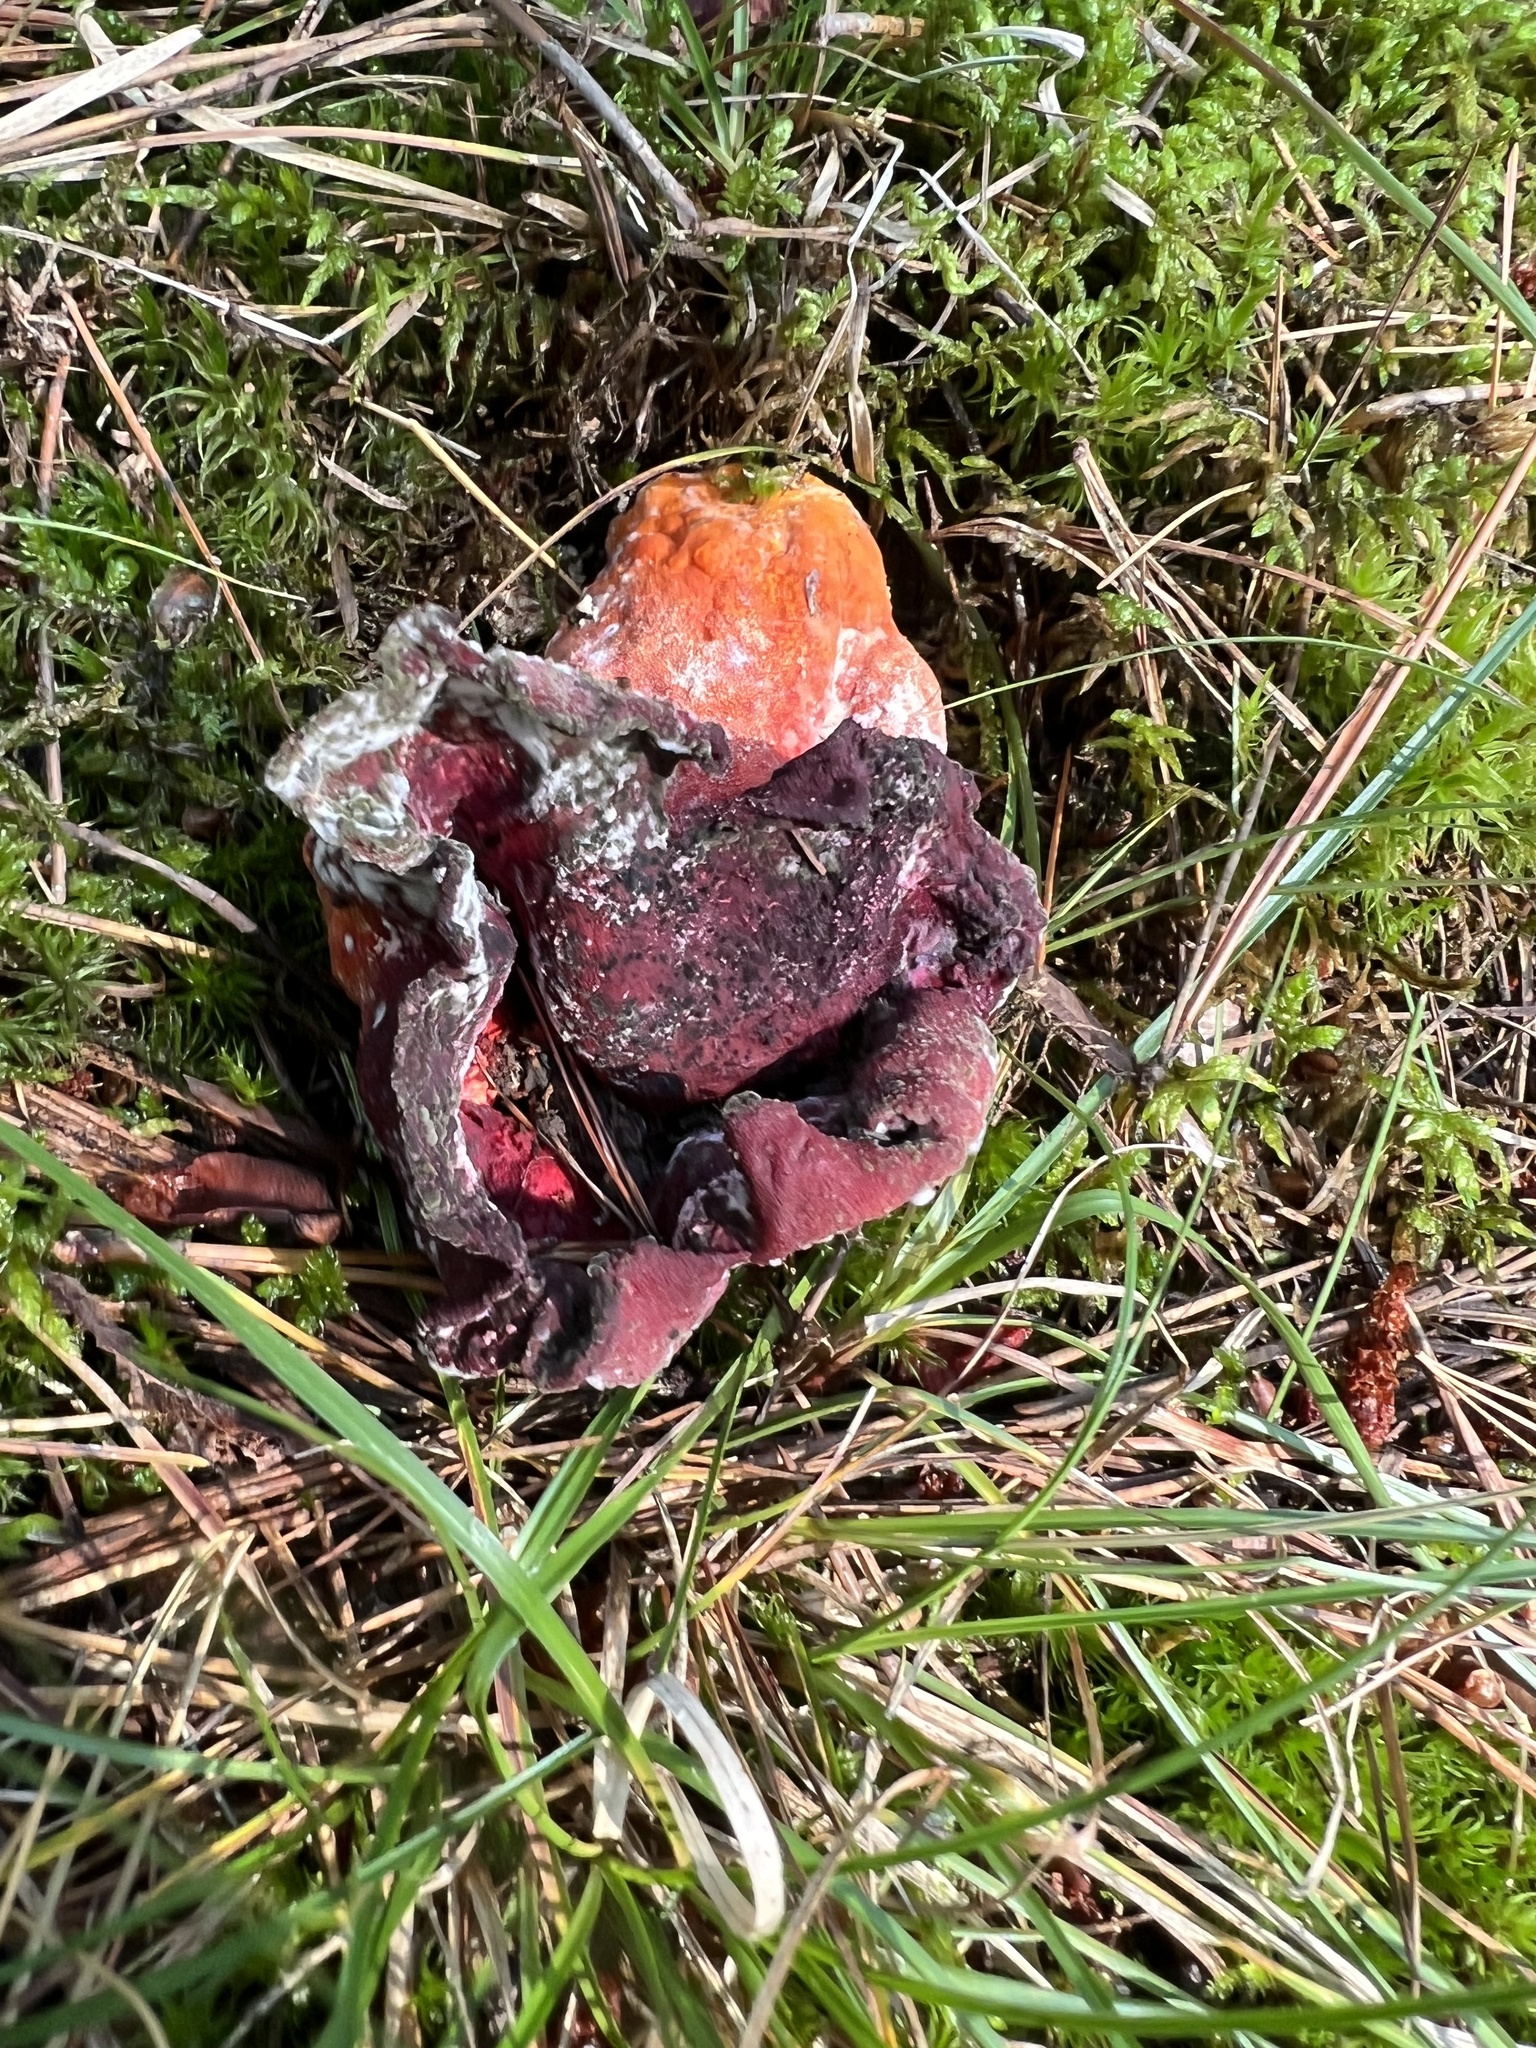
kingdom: Fungi
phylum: Ascomycota
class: Sordariomycetes
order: Hypocreales
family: Hypocreaceae
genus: Hypomyces
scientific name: Hypomyces lactifluorum
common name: Lobster mushroom
